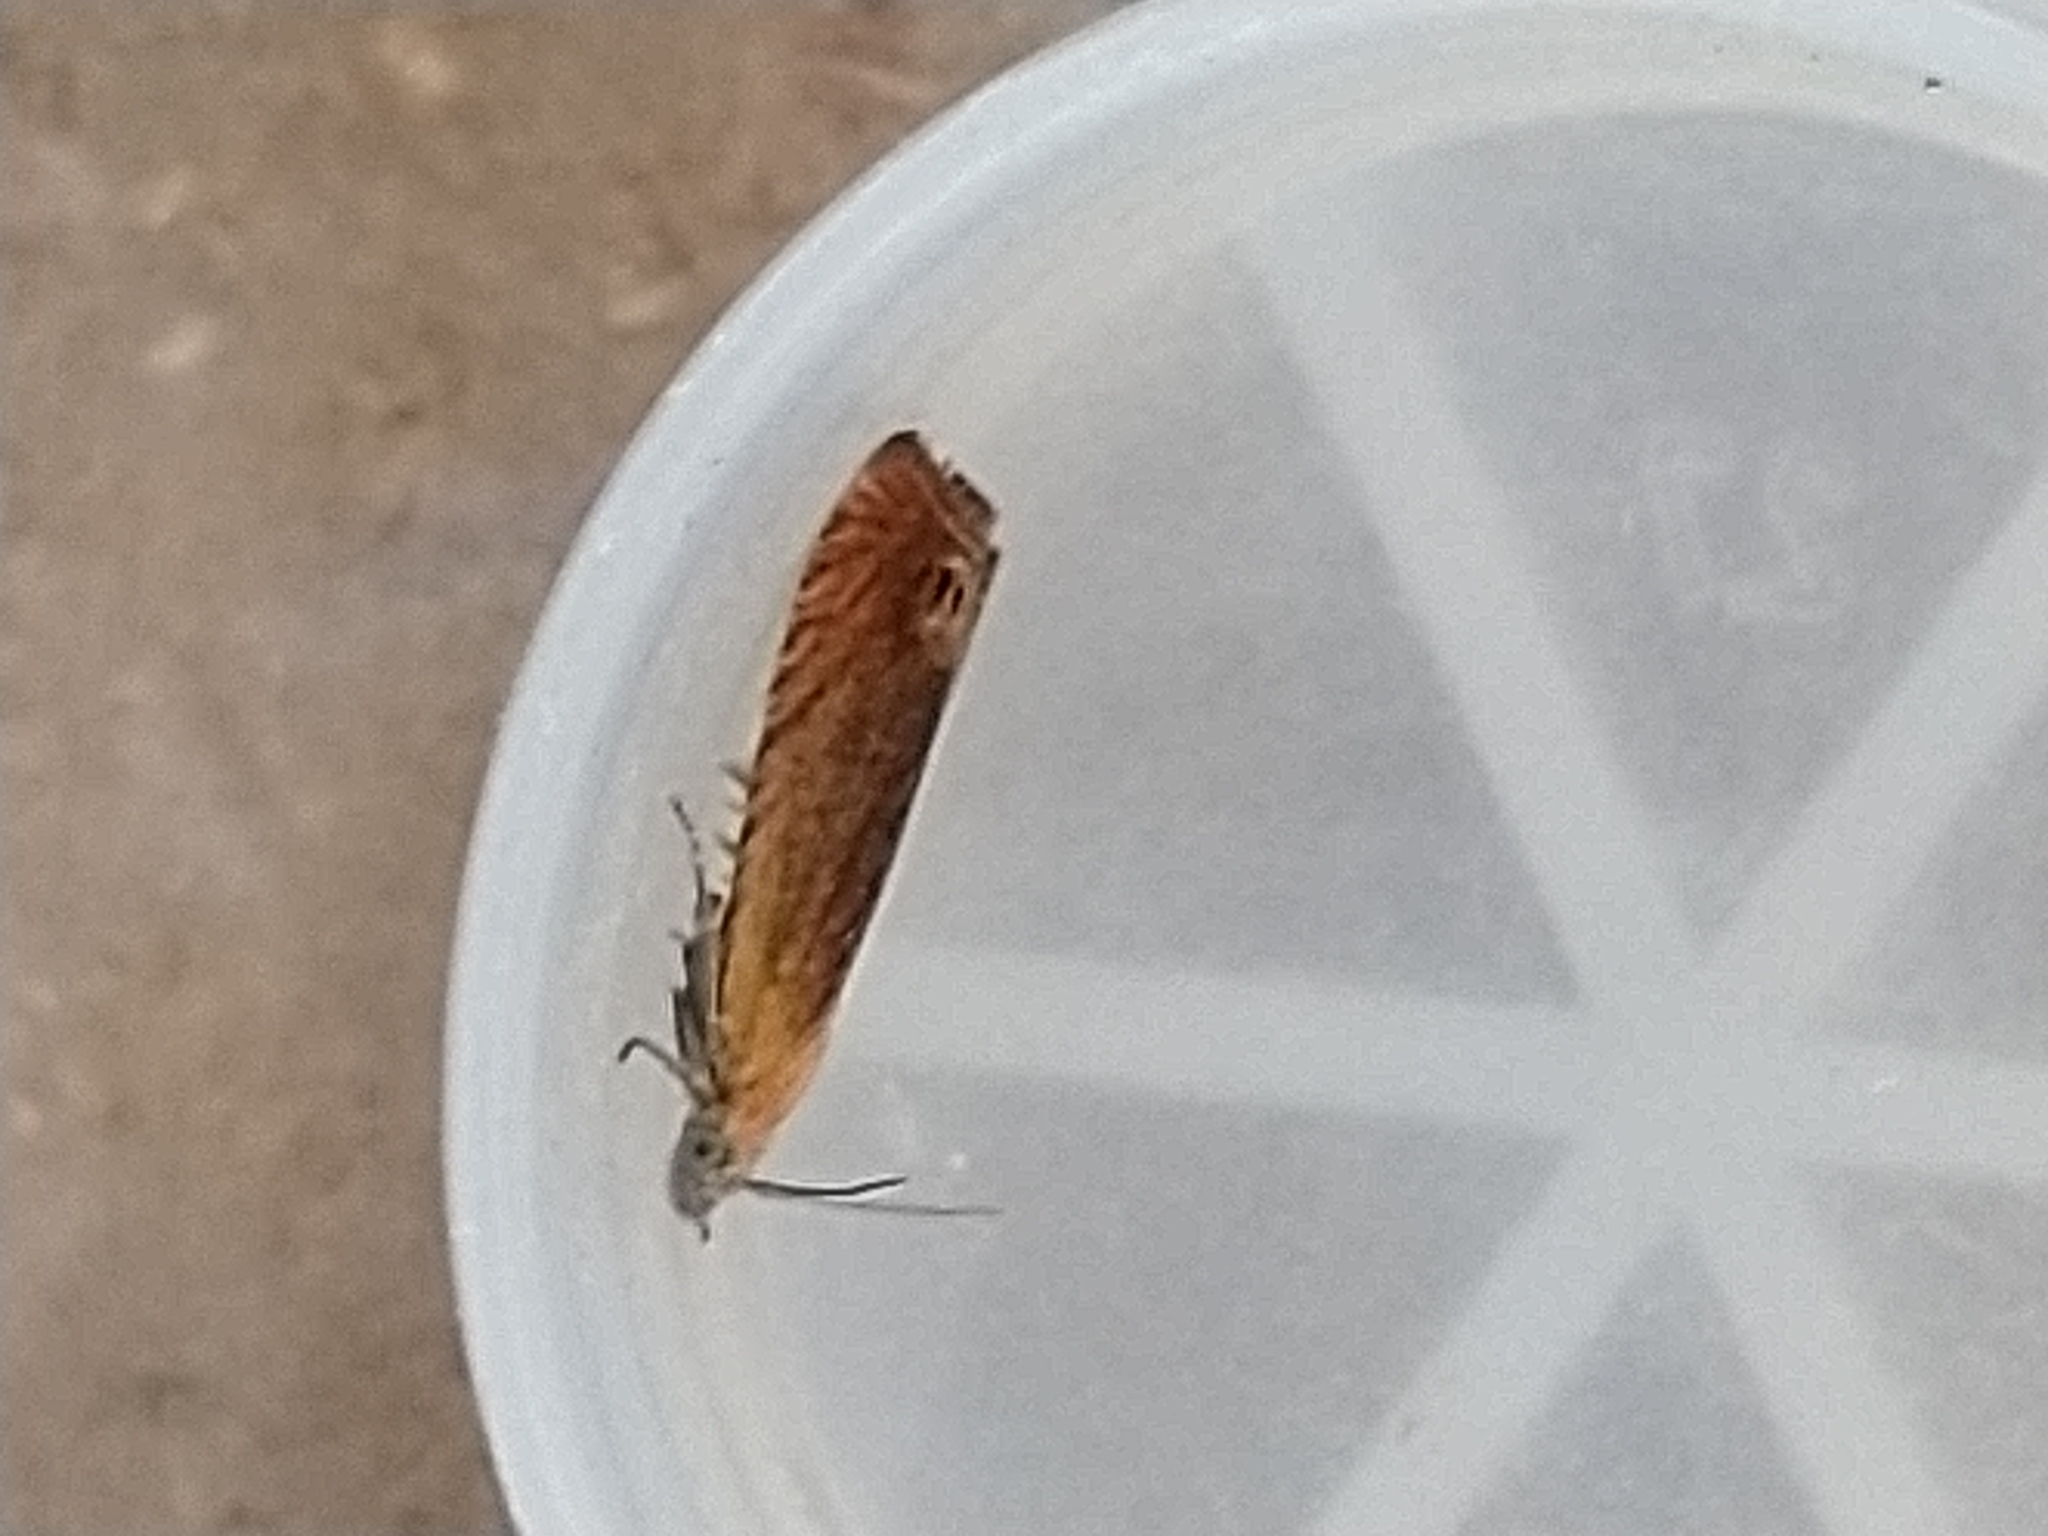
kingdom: Animalia
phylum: Arthropoda
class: Insecta
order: Lepidoptera
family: Tortricidae
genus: Lathronympha
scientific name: Lathronympha strigana
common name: Red piercer
